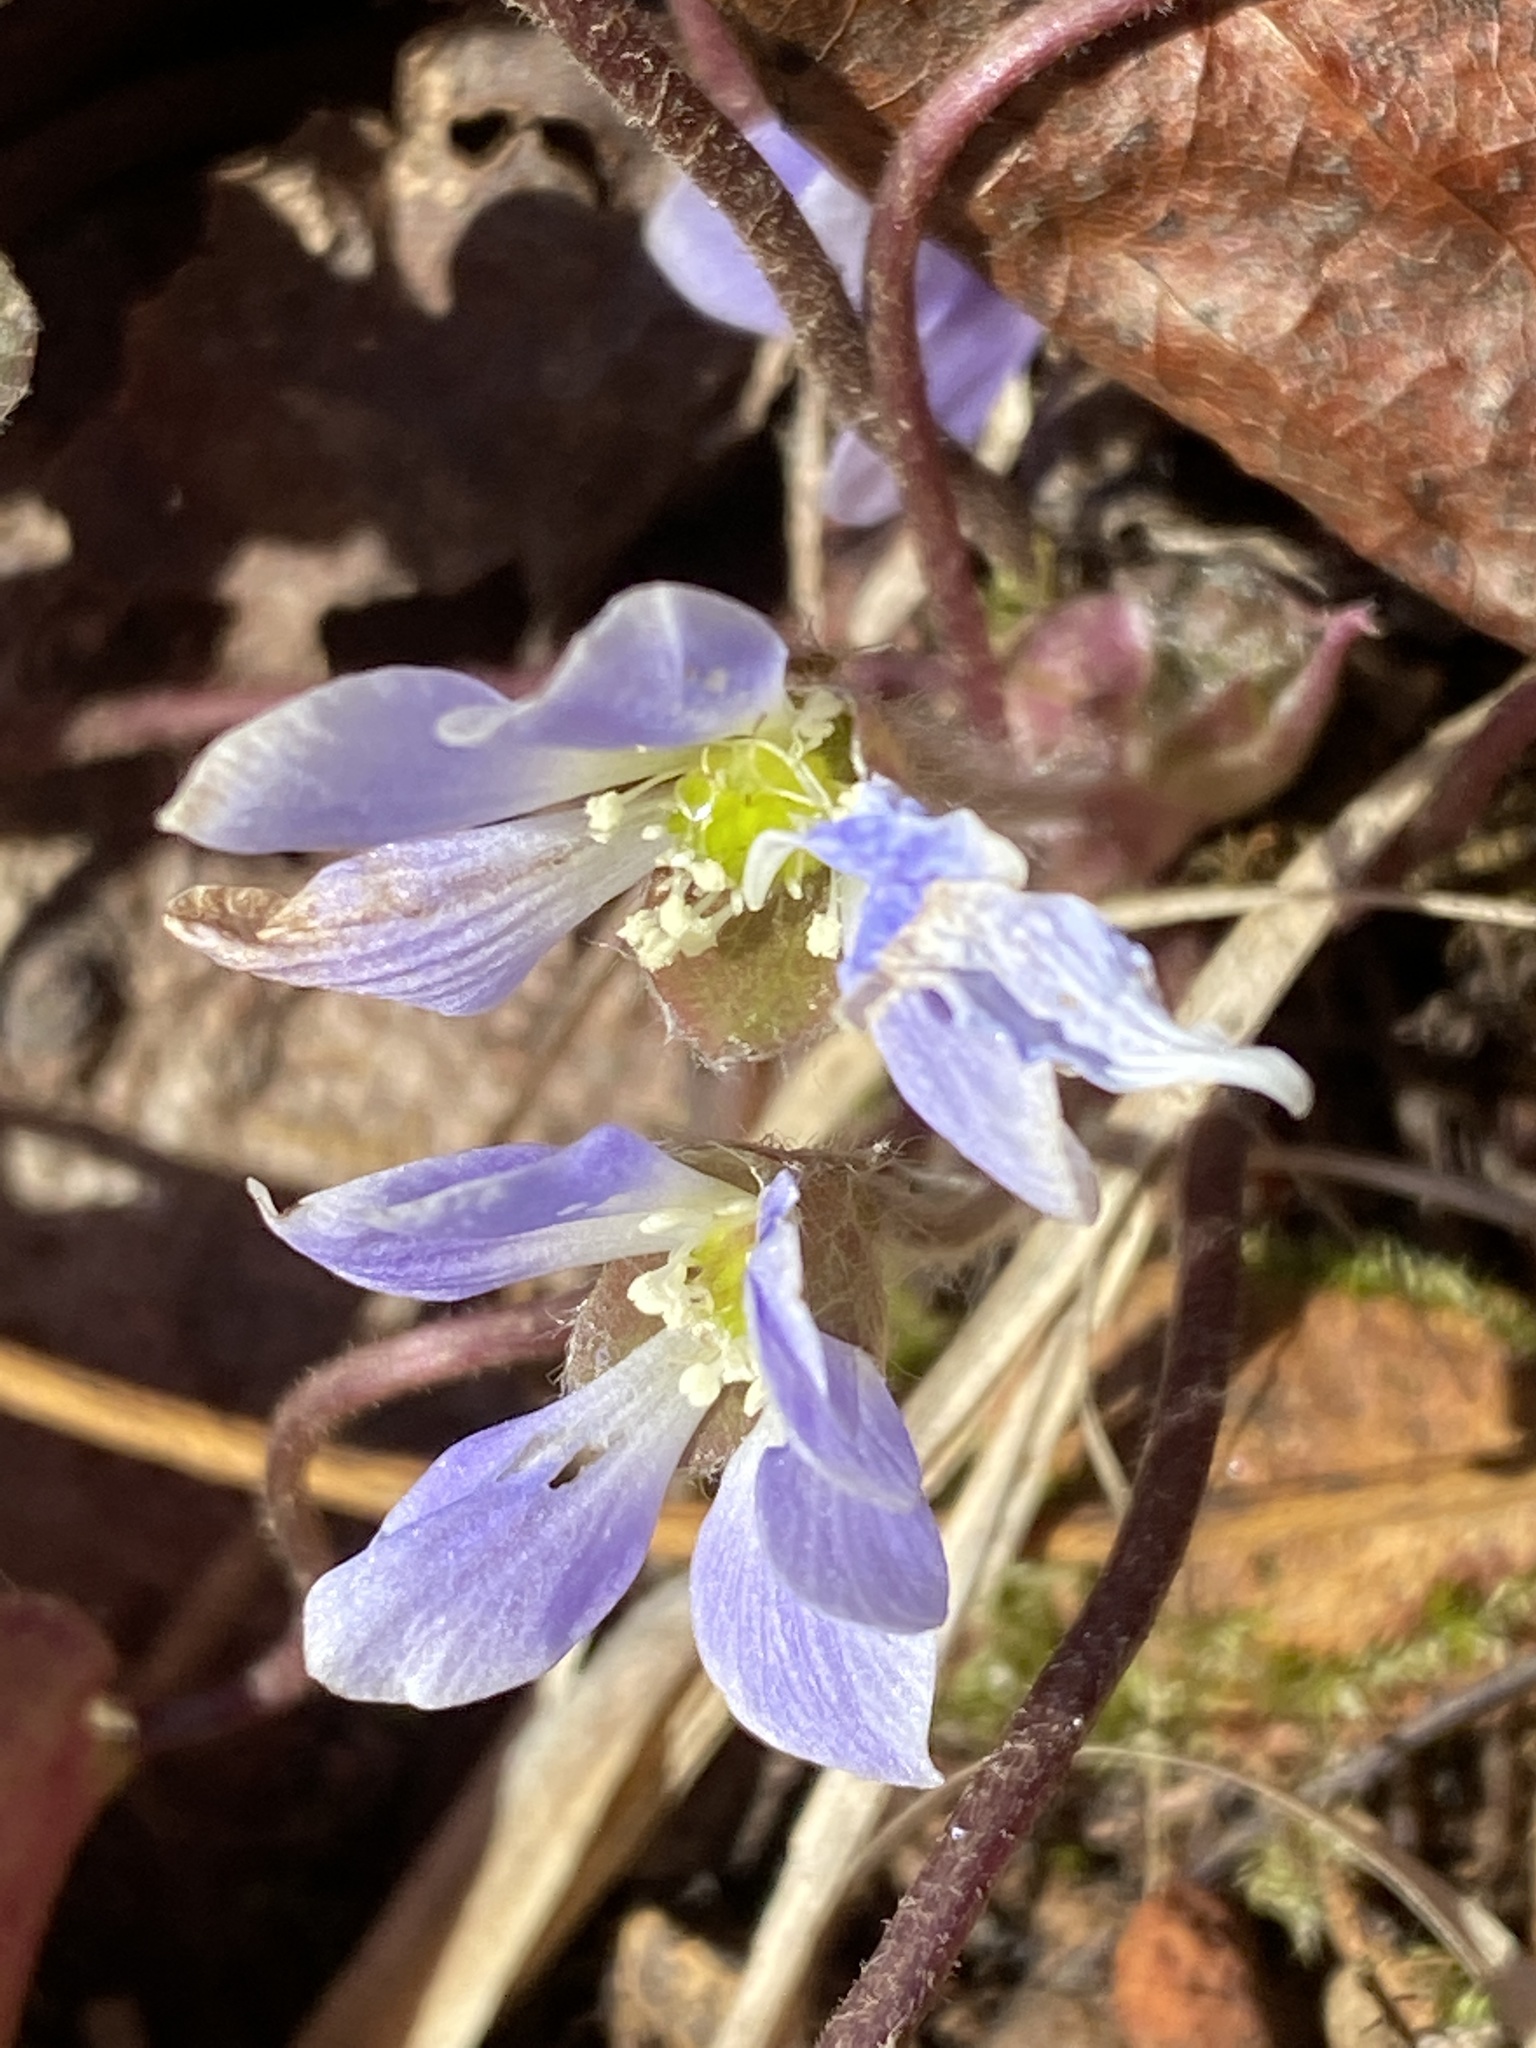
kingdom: Plantae
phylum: Tracheophyta
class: Magnoliopsida
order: Ranunculales
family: Ranunculaceae
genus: Hepatica
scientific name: Hepatica americana
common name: American hepatica
